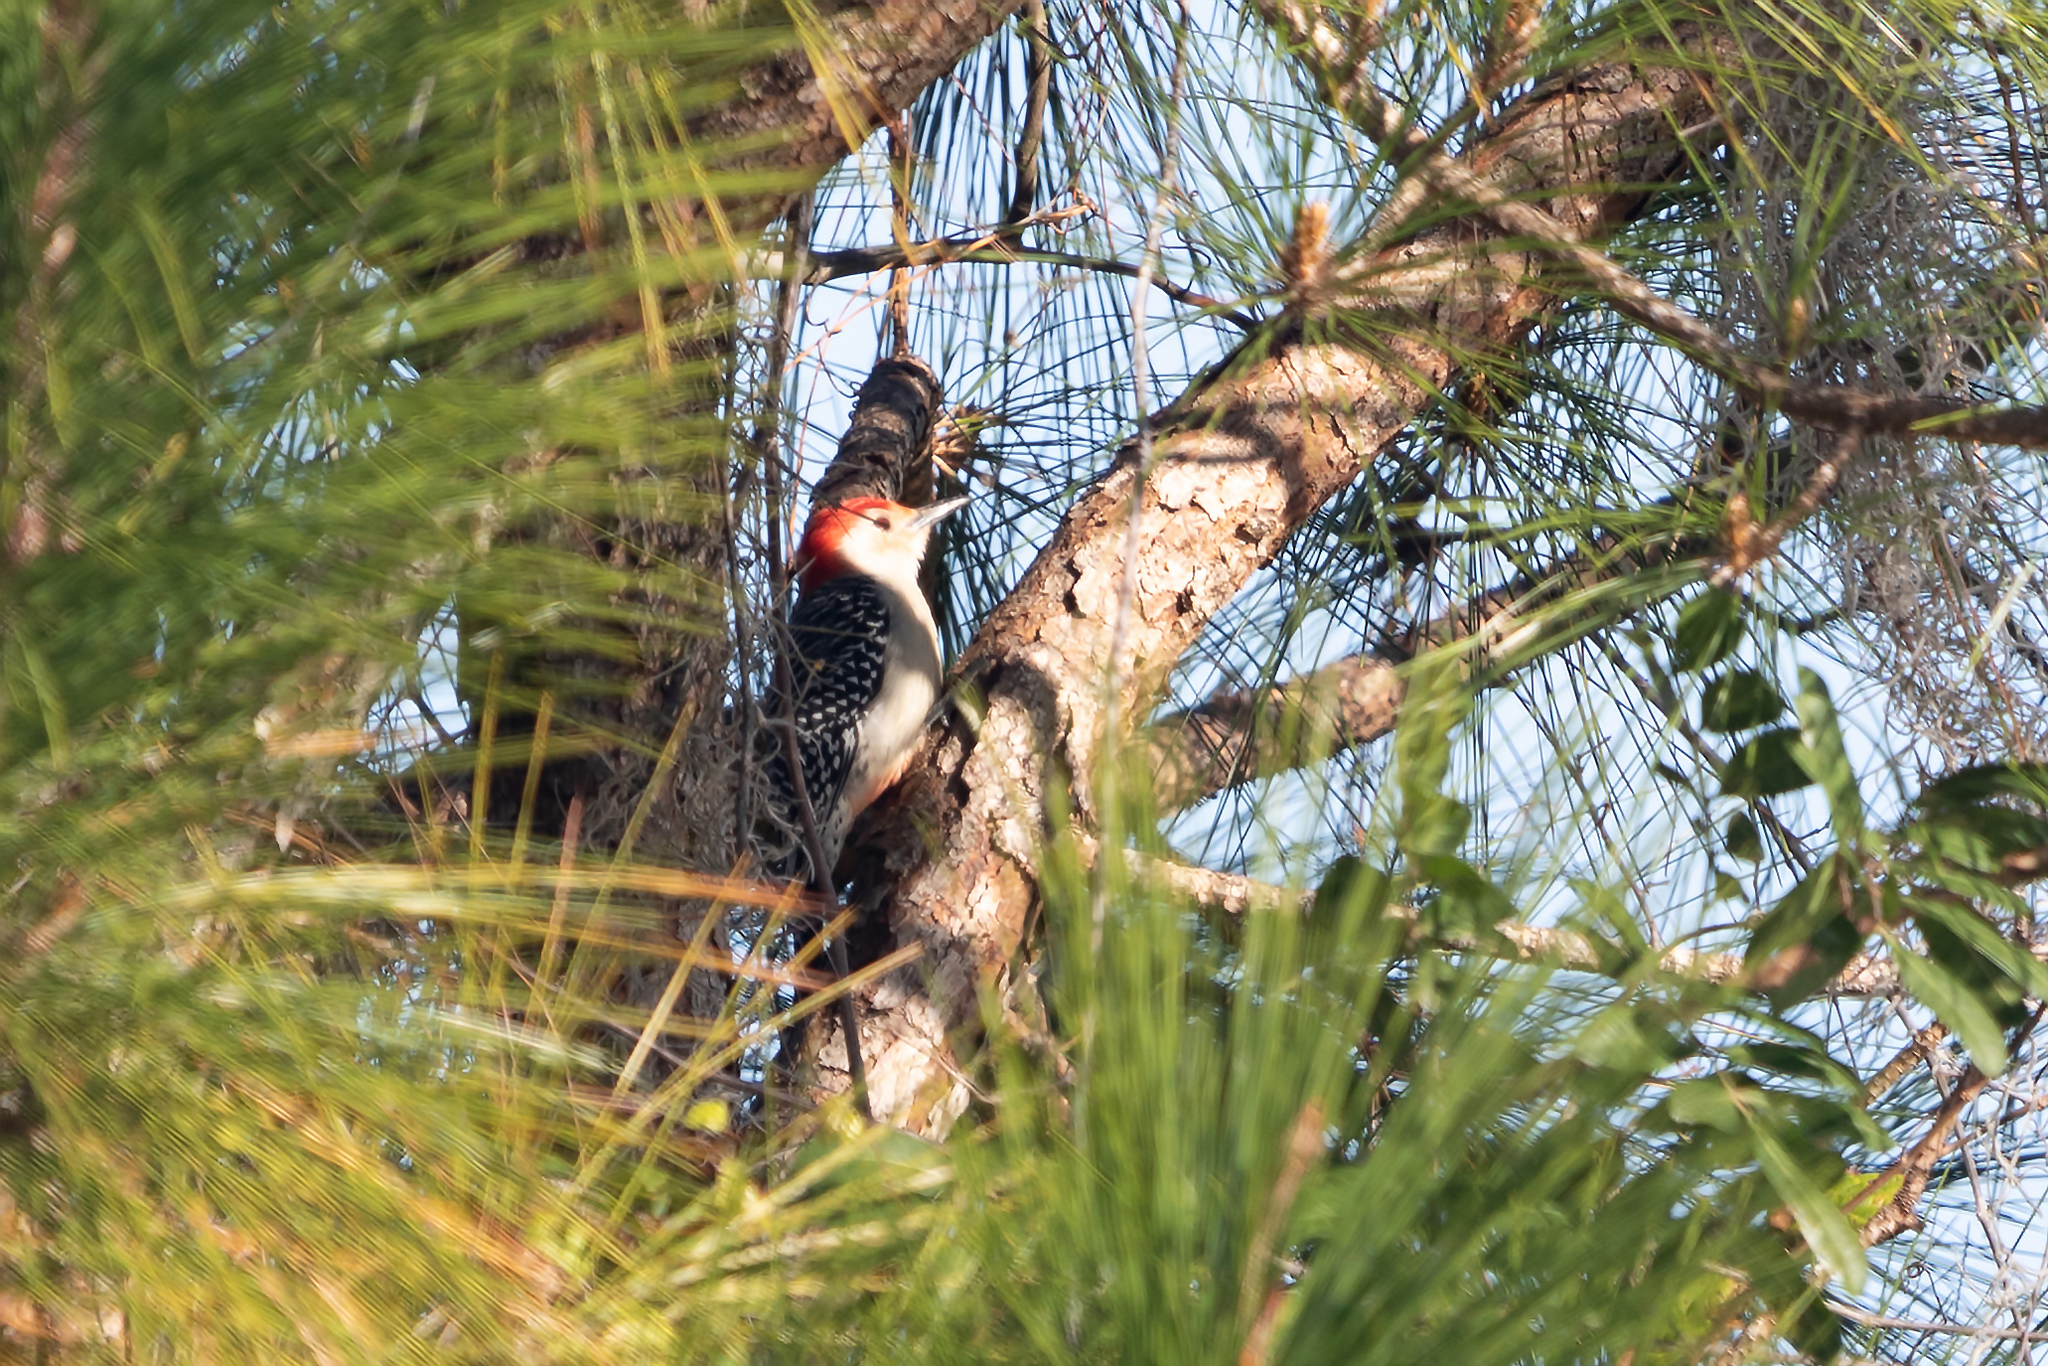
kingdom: Animalia
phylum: Chordata
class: Aves
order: Piciformes
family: Picidae
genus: Melanerpes
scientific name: Melanerpes carolinus
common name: Red-bellied woodpecker
